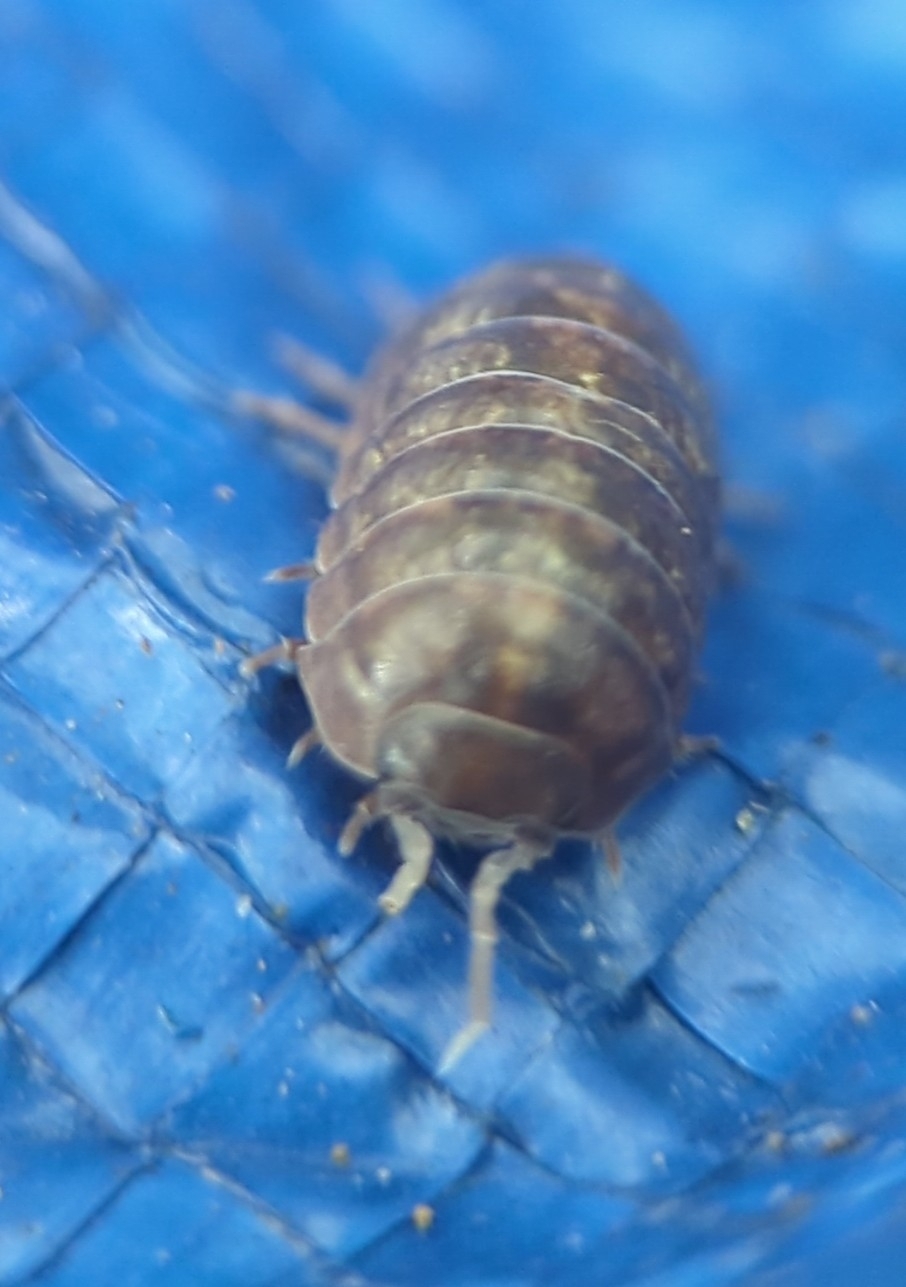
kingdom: Animalia
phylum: Arthropoda
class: Malacostraca
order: Isopoda
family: Armadillidiidae
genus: Armadillidium
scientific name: Armadillidium vulgare
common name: Common pill woodlouse
